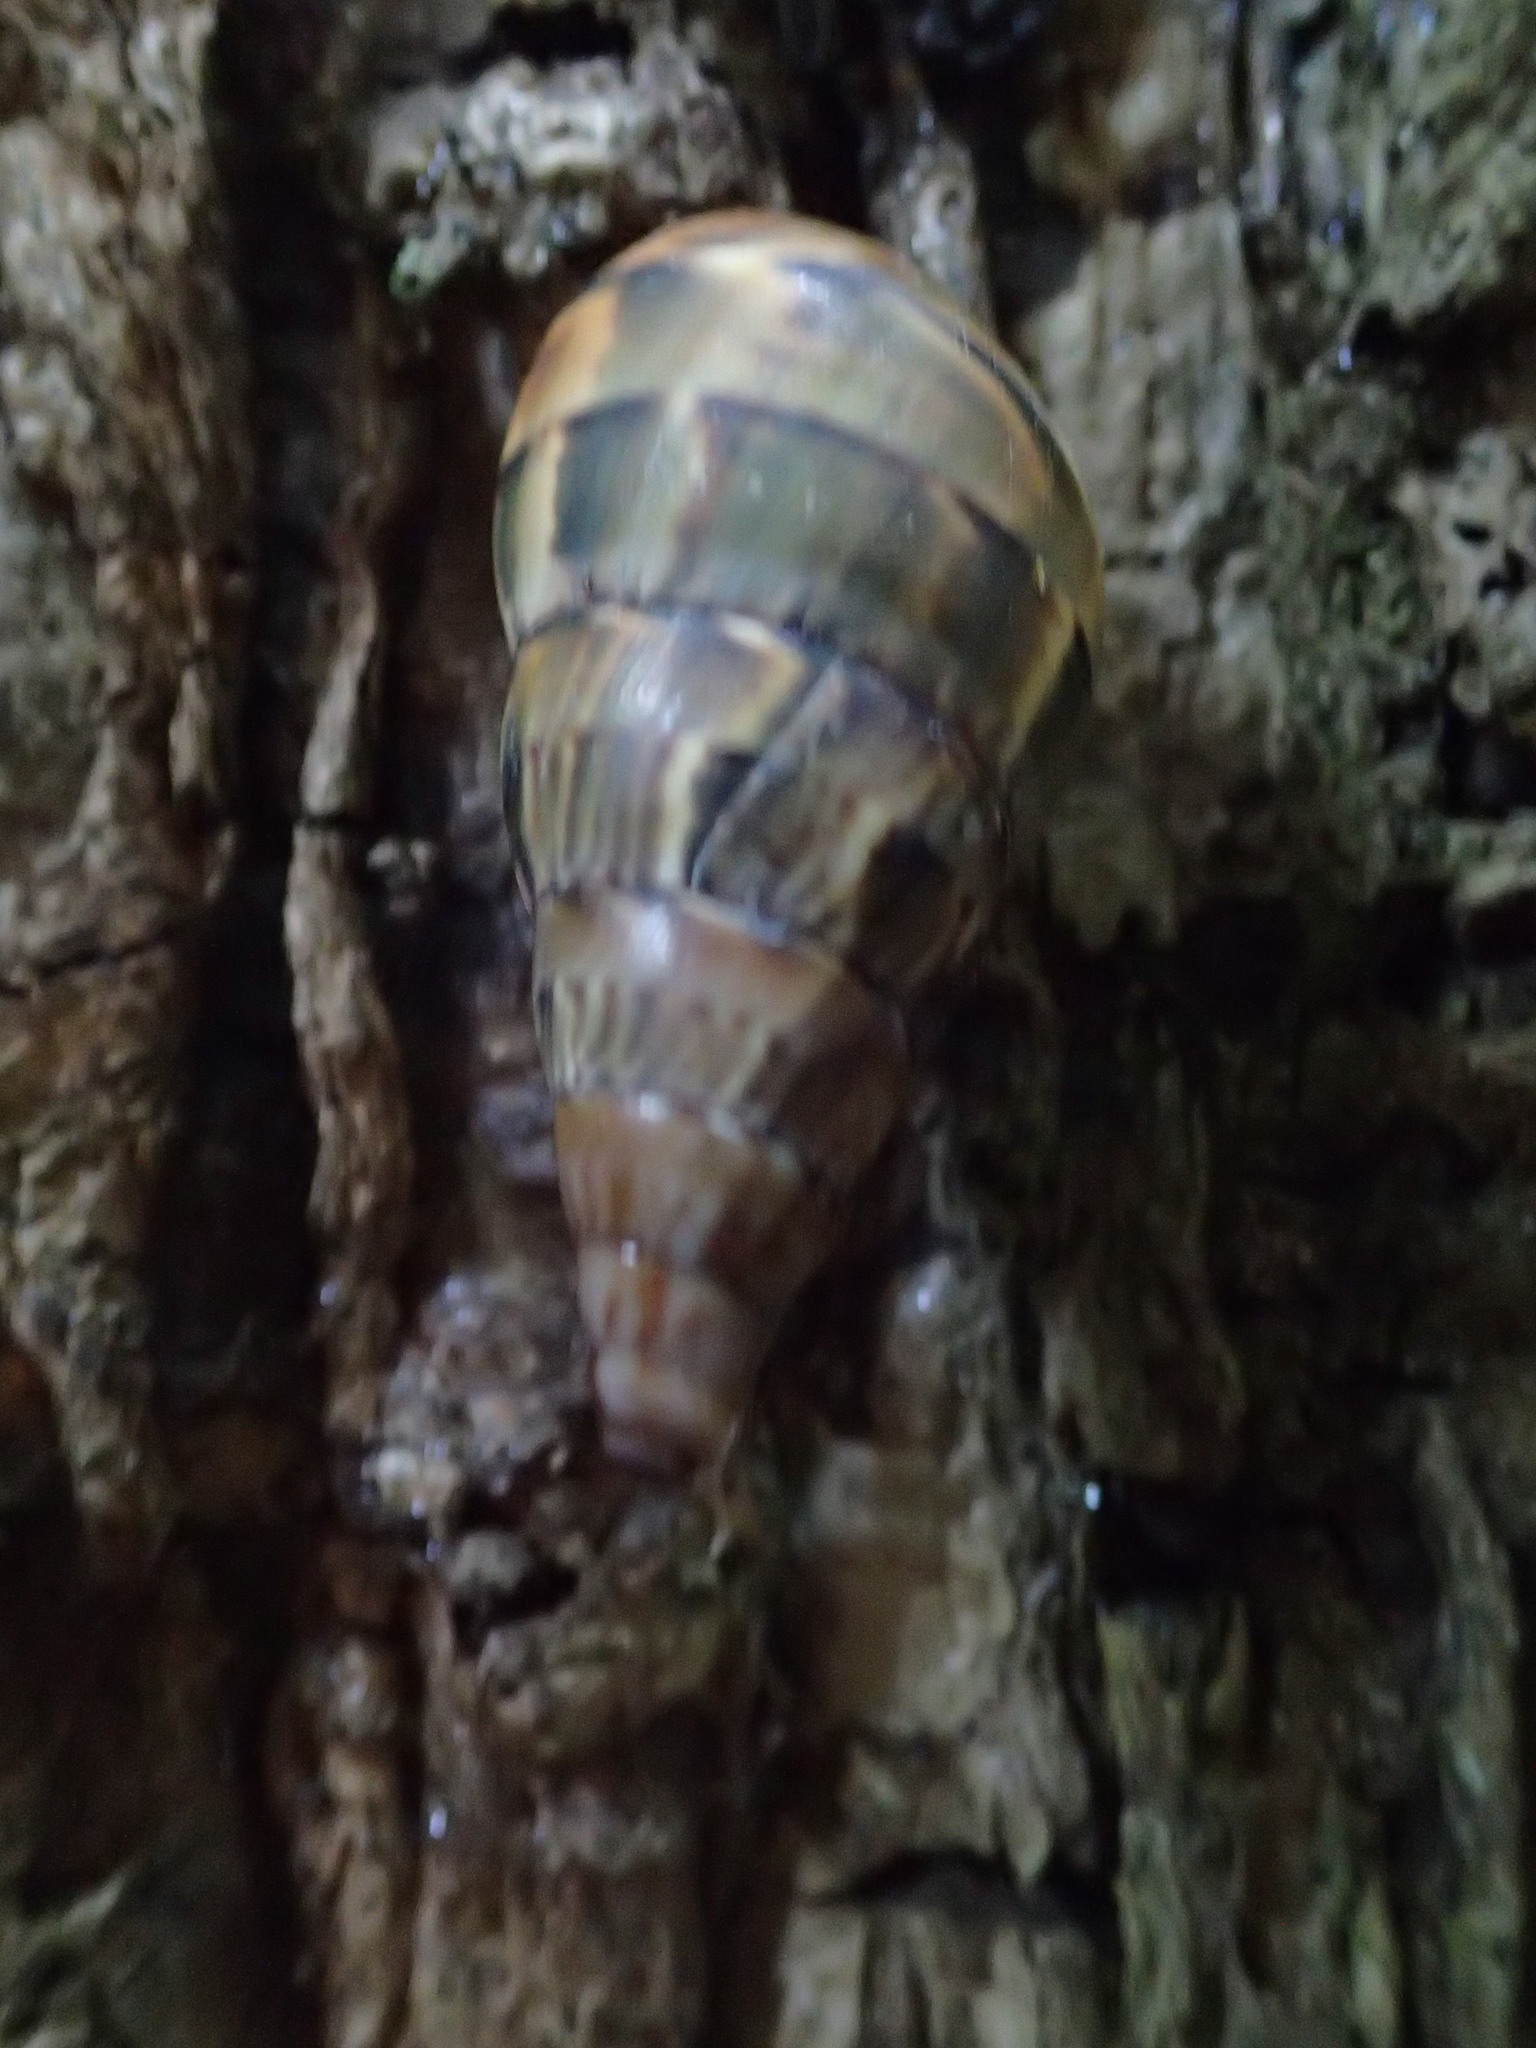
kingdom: Animalia
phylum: Mollusca
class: Gastropoda
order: Stylommatophora
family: Orthalicidae
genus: Corona
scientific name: Corona
